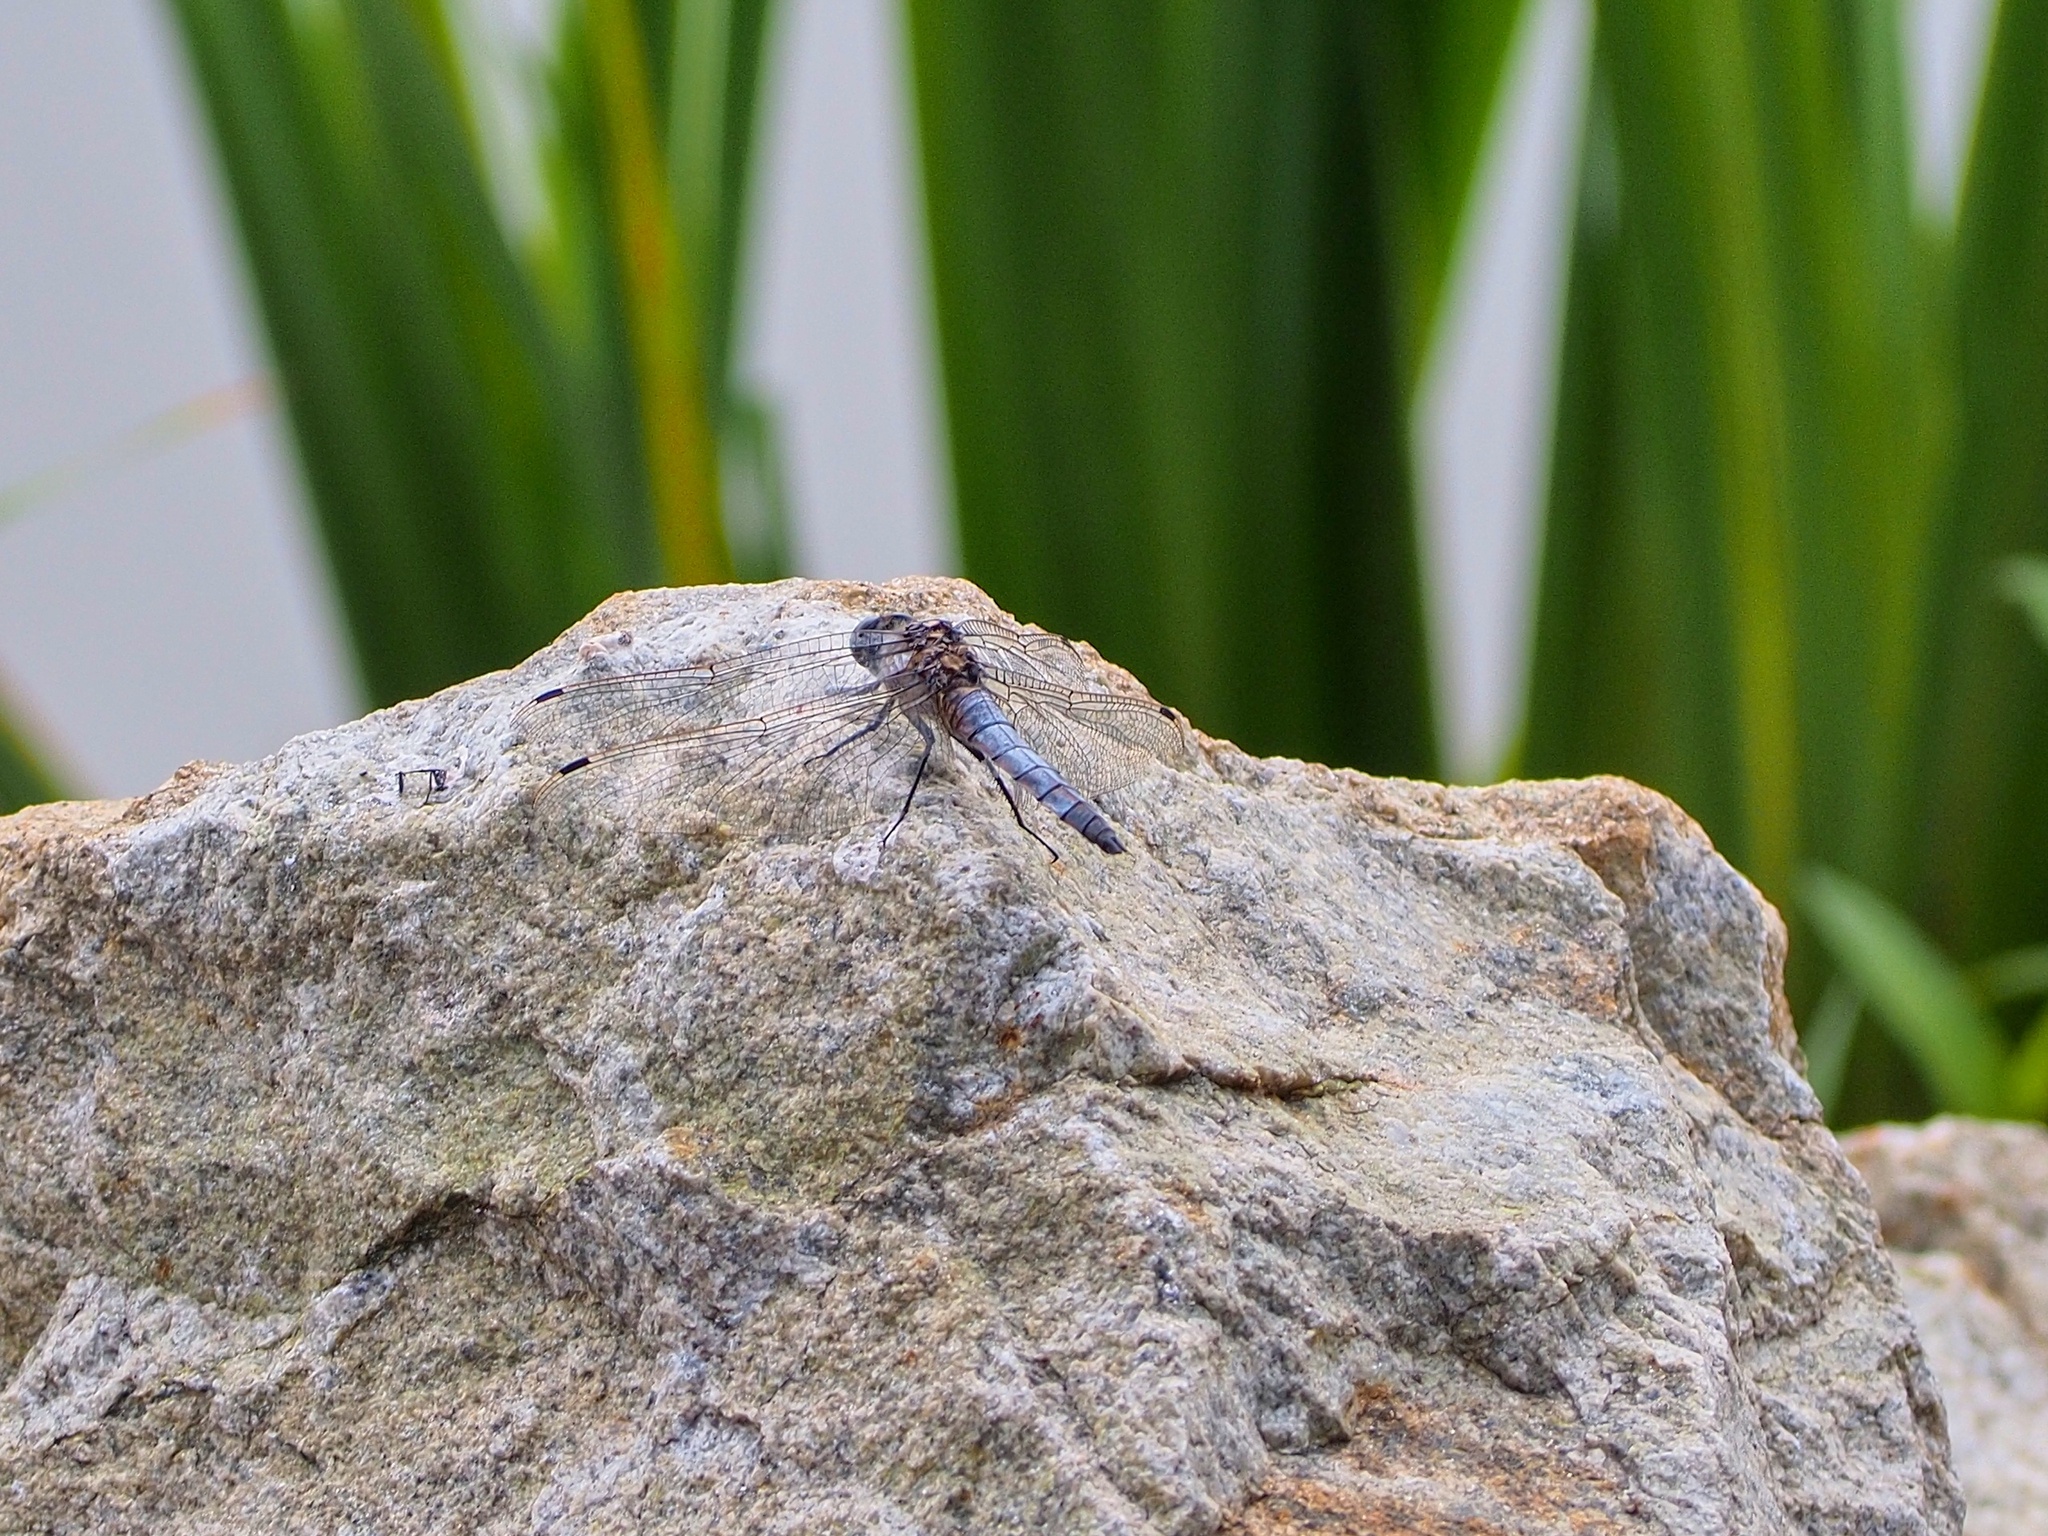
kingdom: Animalia
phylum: Arthropoda
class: Insecta
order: Odonata
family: Libellulidae
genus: Orthetrum
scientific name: Orthetrum cancellatum
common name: Black-tailed skimmer
